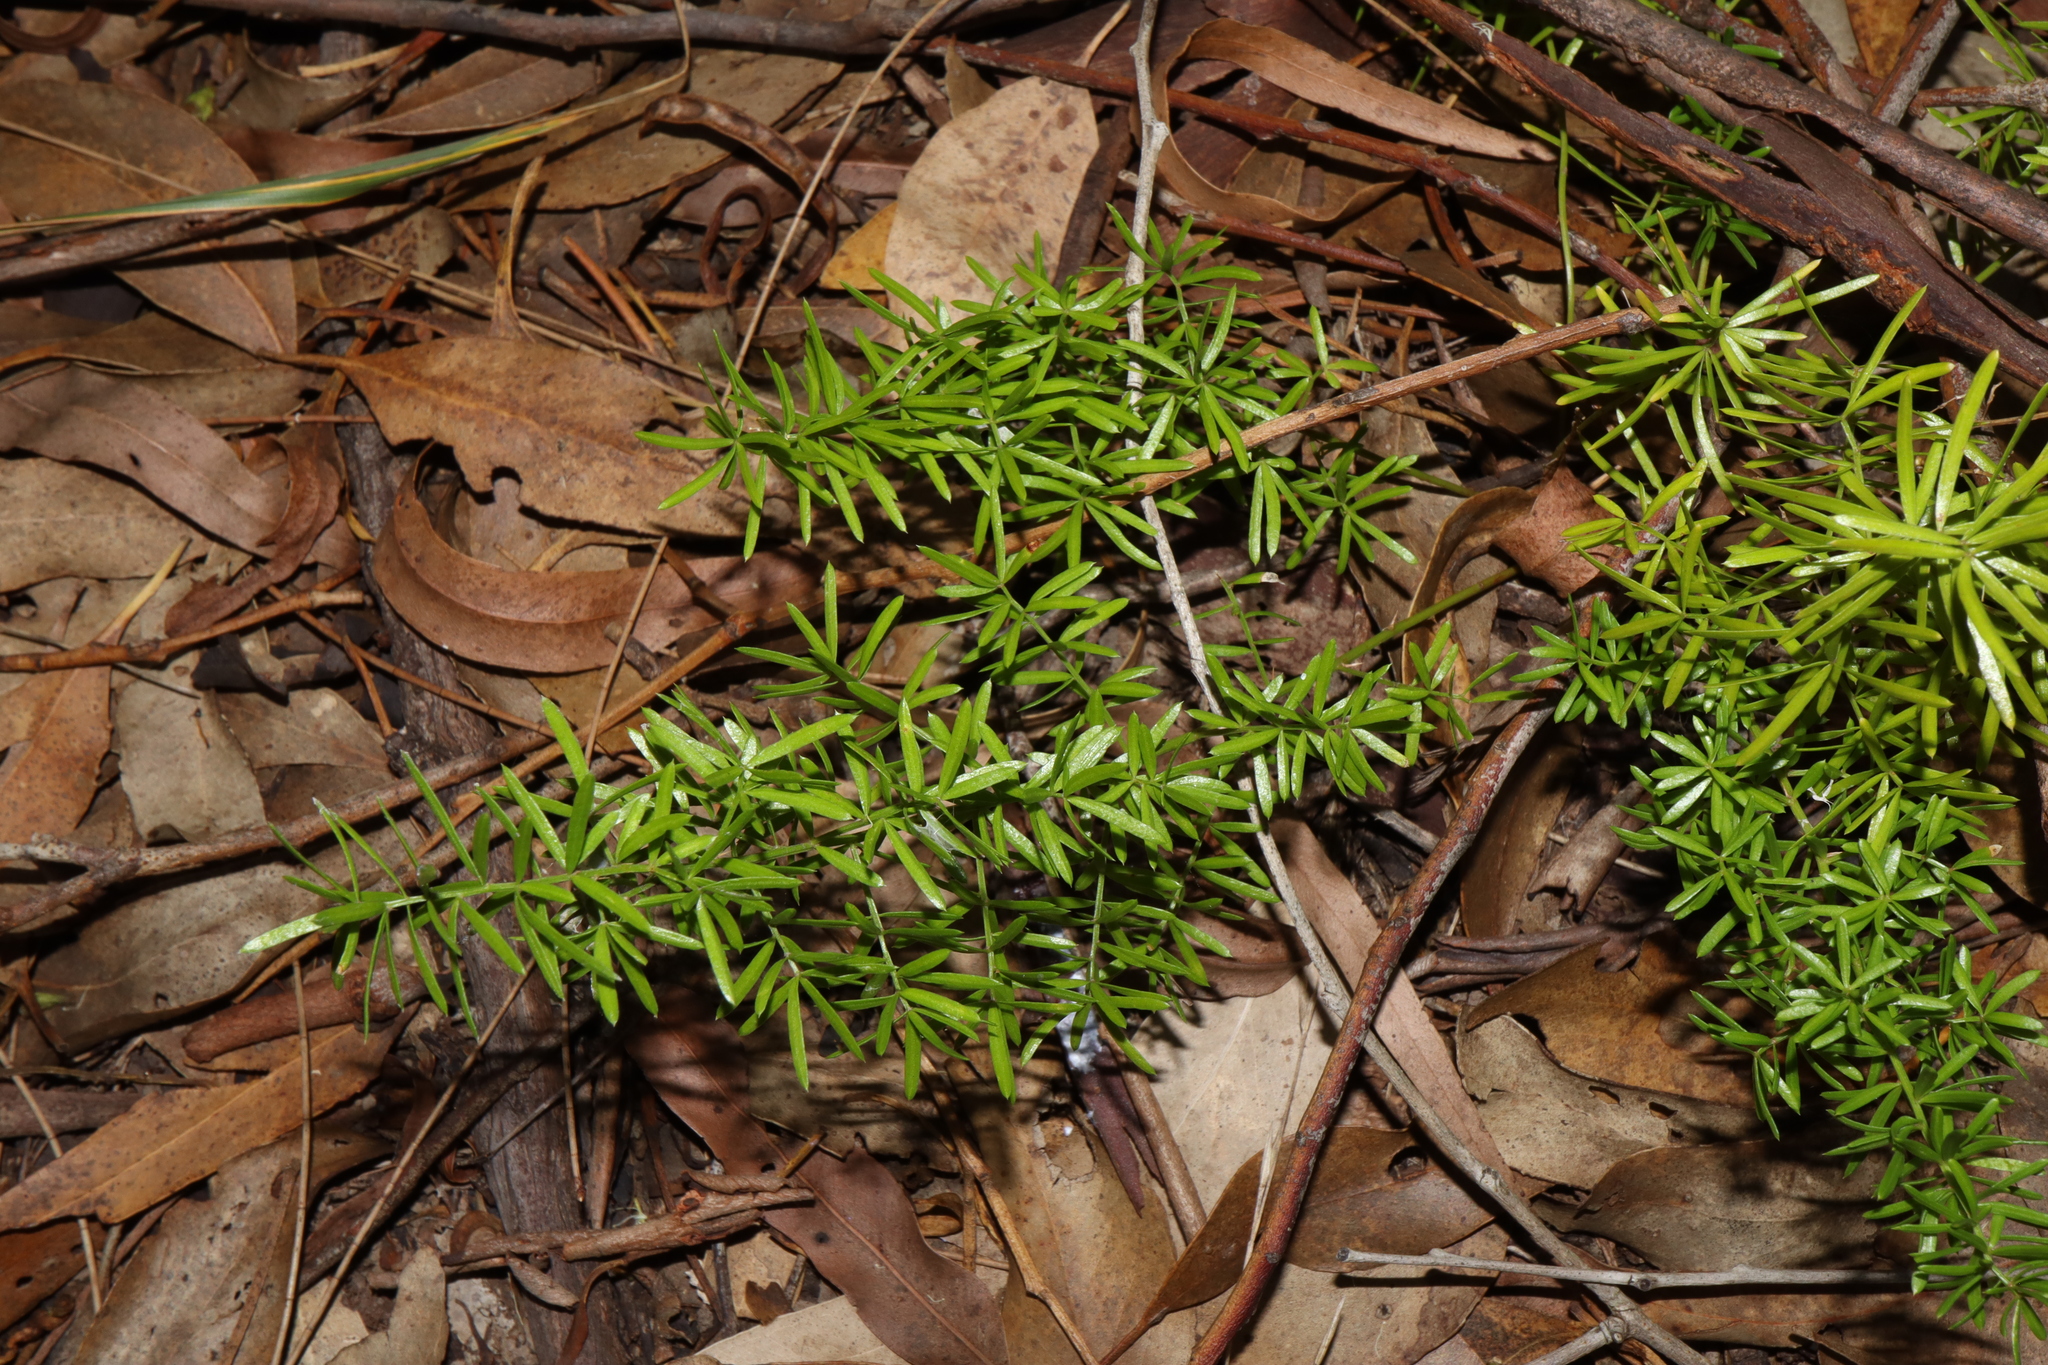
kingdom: Plantae
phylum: Tracheophyta
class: Liliopsida
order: Asparagales
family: Asparagaceae
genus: Asparagus
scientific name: Asparagus aethiopicus
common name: Sprenger's asparagus fern
